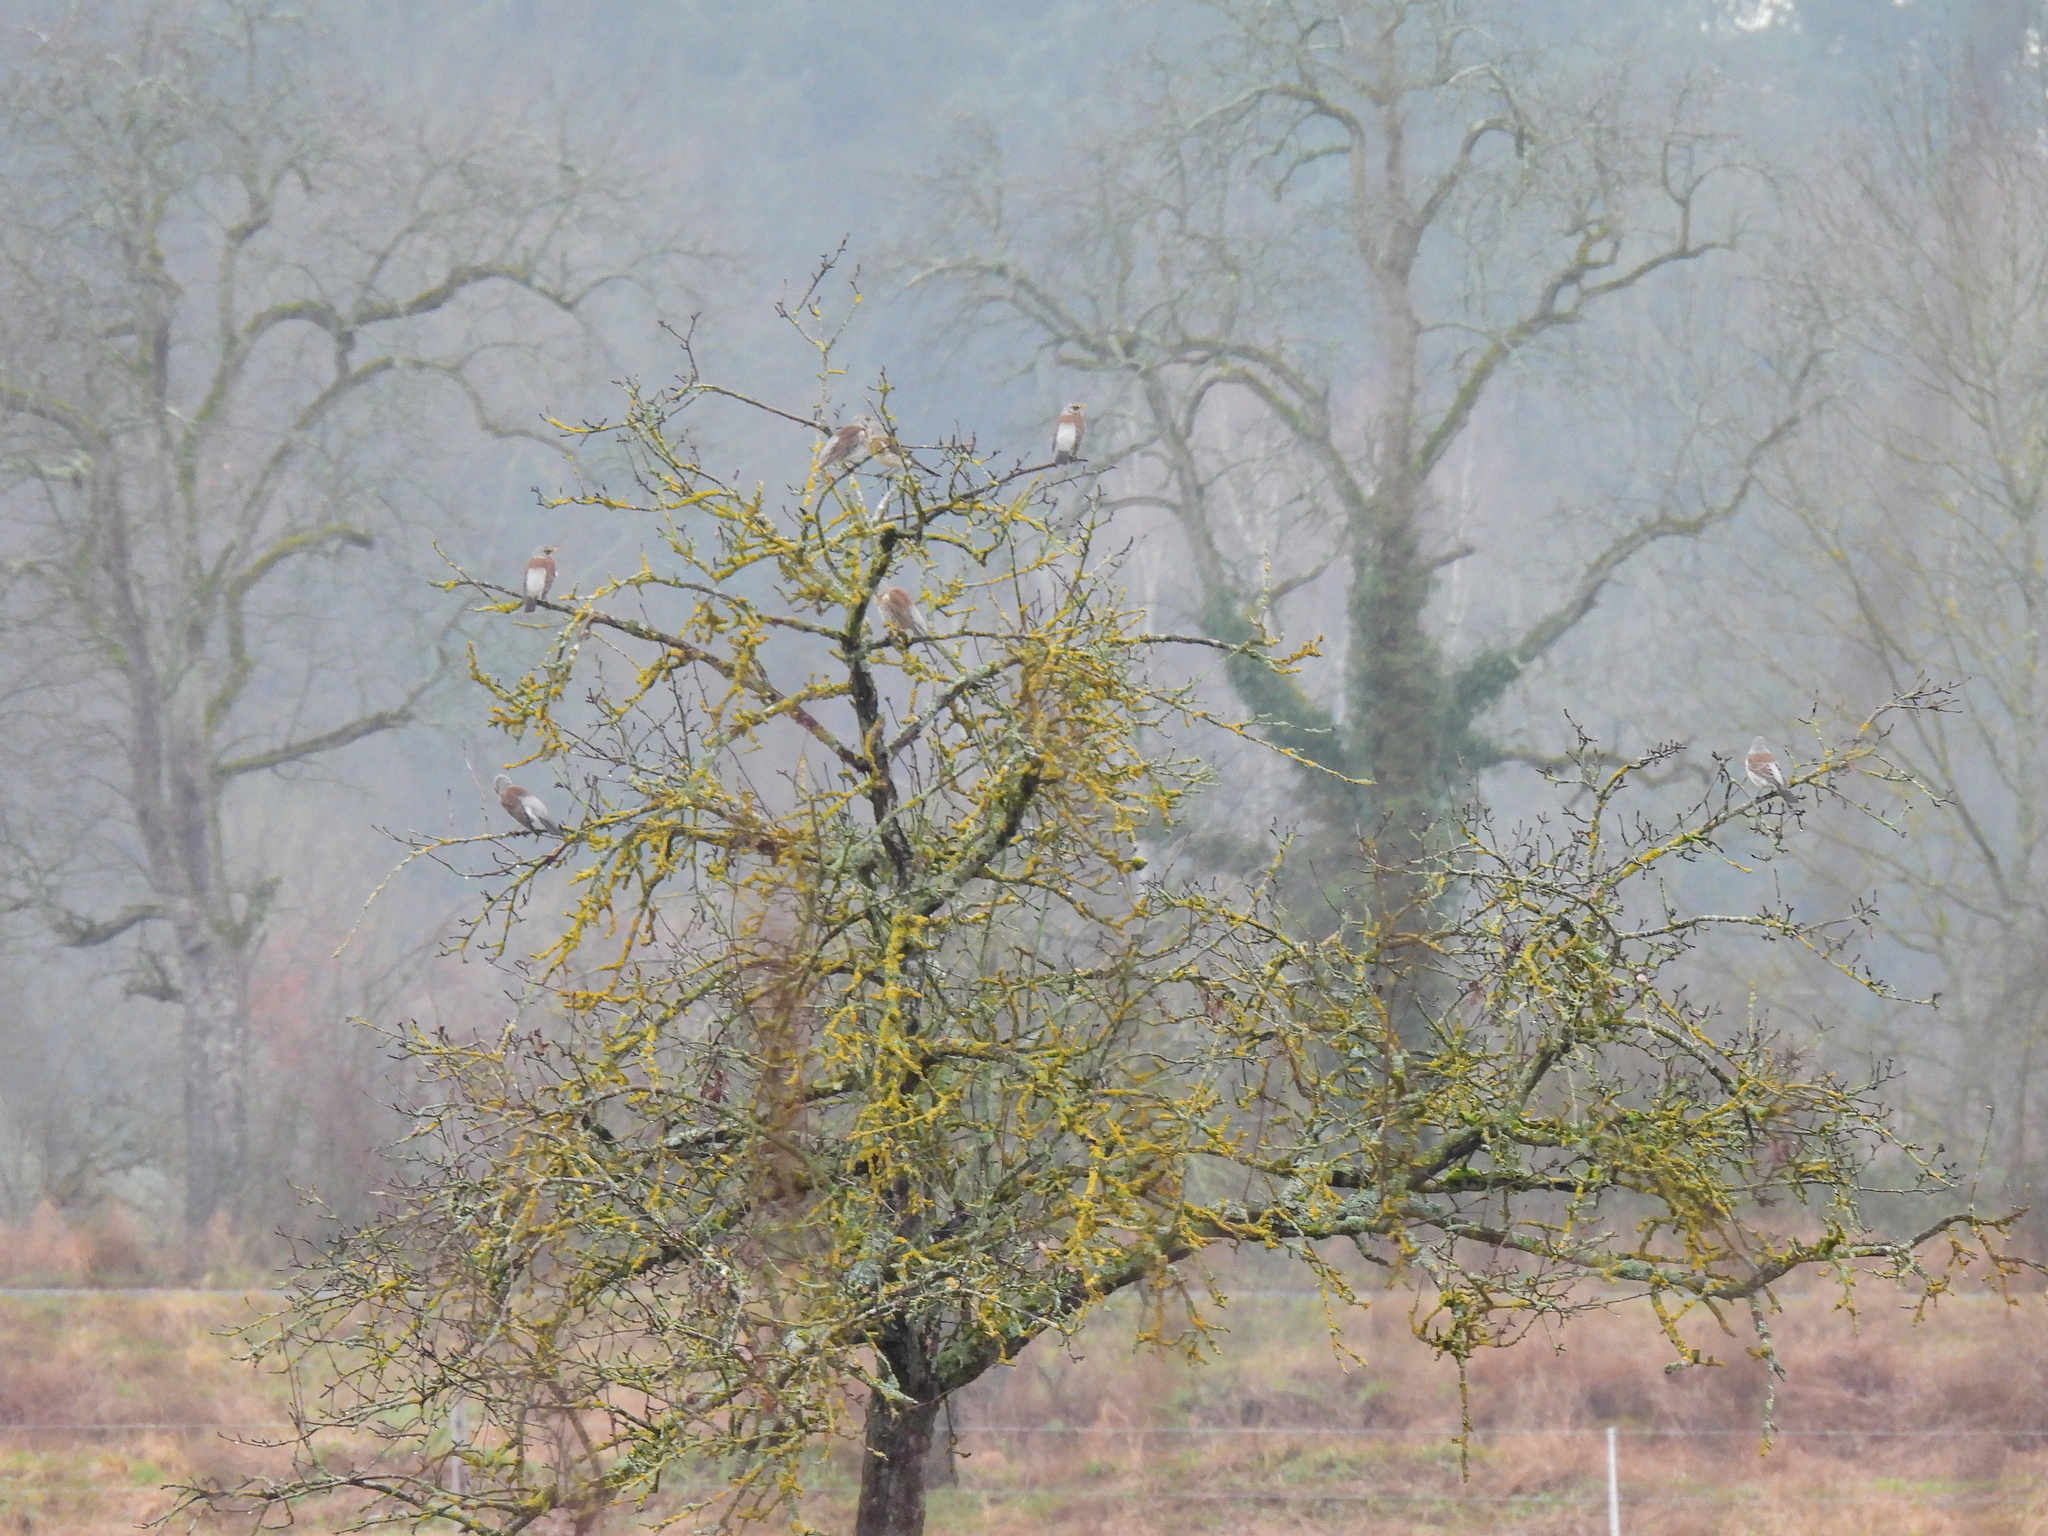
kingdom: Animalia
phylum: Chordata
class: Aves
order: Passeriformes
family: Turdidae
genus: Turdus
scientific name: Turdus pilaris
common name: Fieldfare
